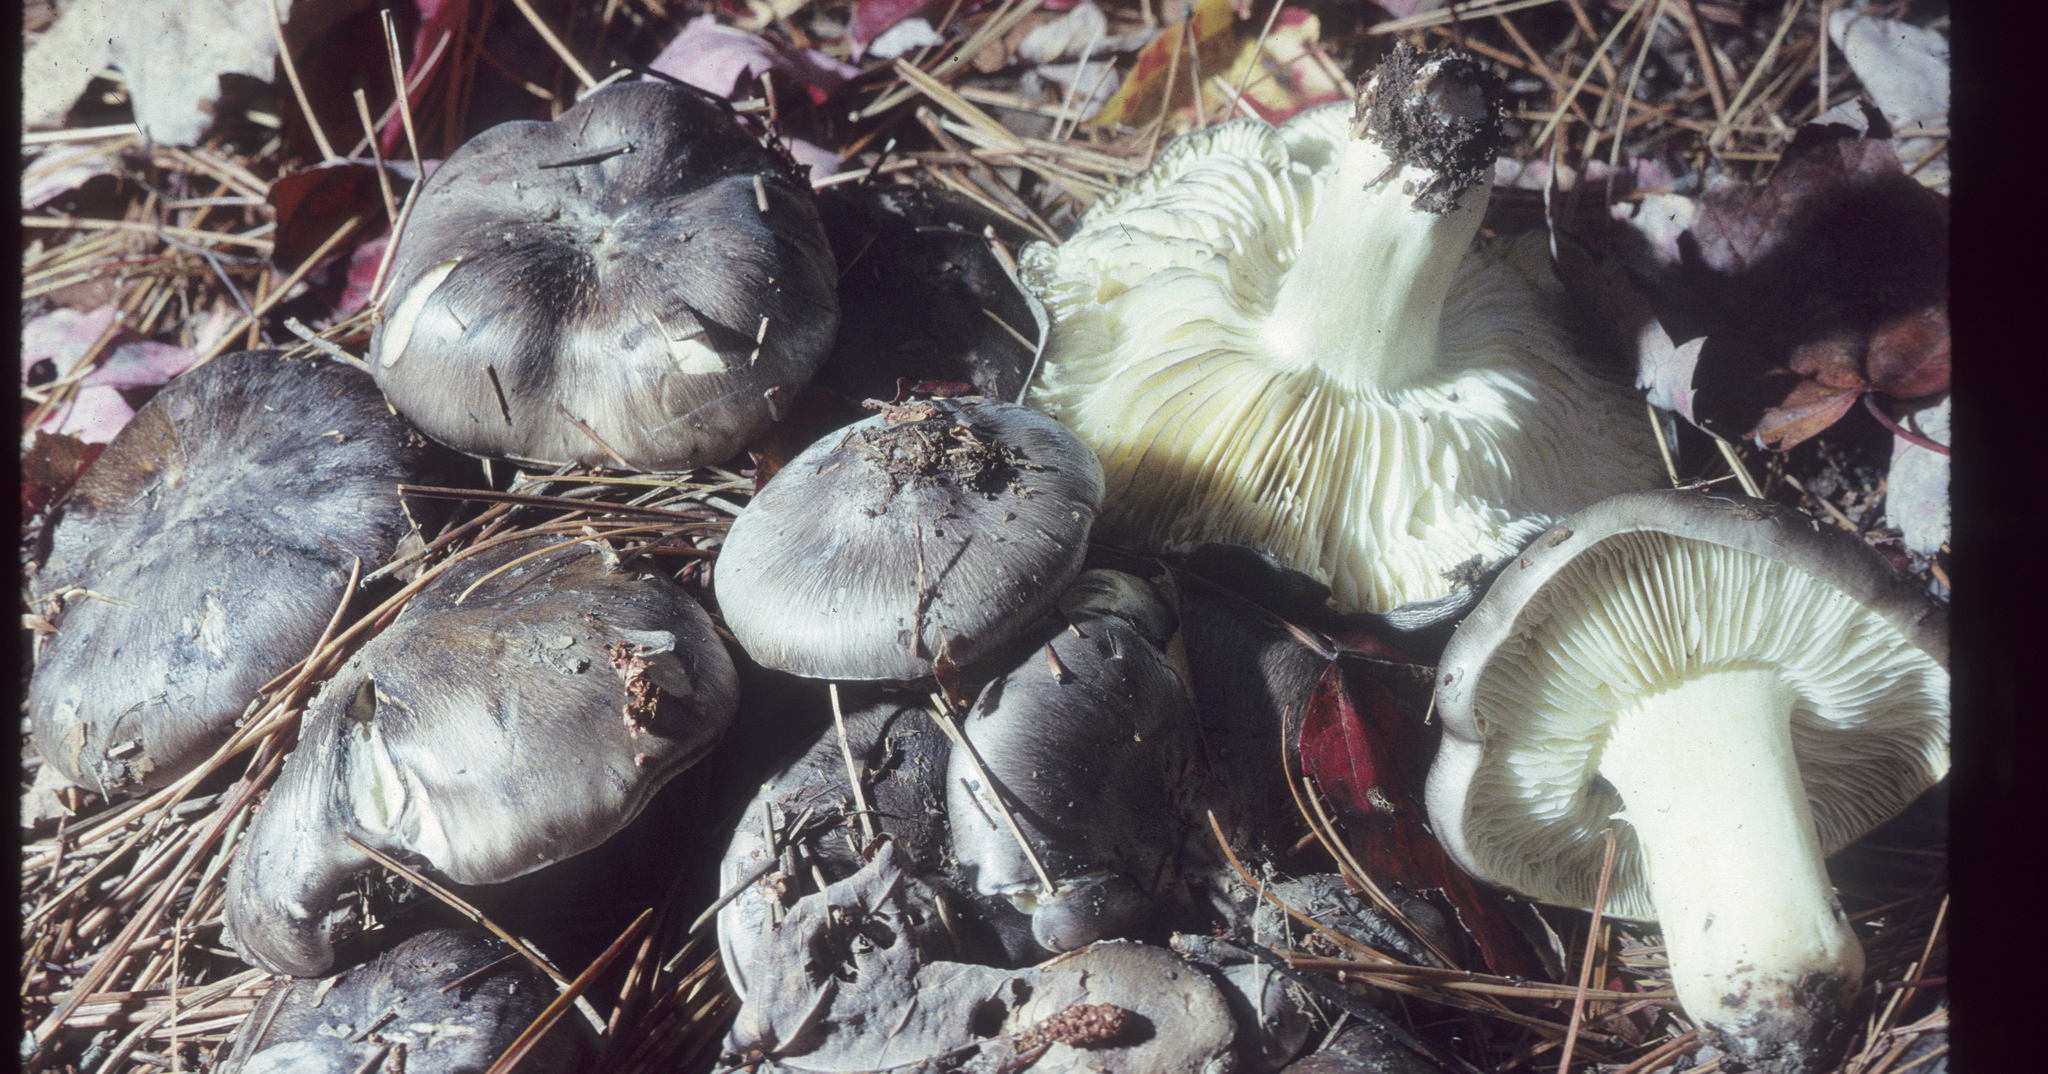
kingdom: Fungi
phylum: Basidiomycota
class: Agaricomycetes
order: Agaricales
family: Tricholomataceae
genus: Tricholoma
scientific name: Tricholoma portentosum
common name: Coalman
